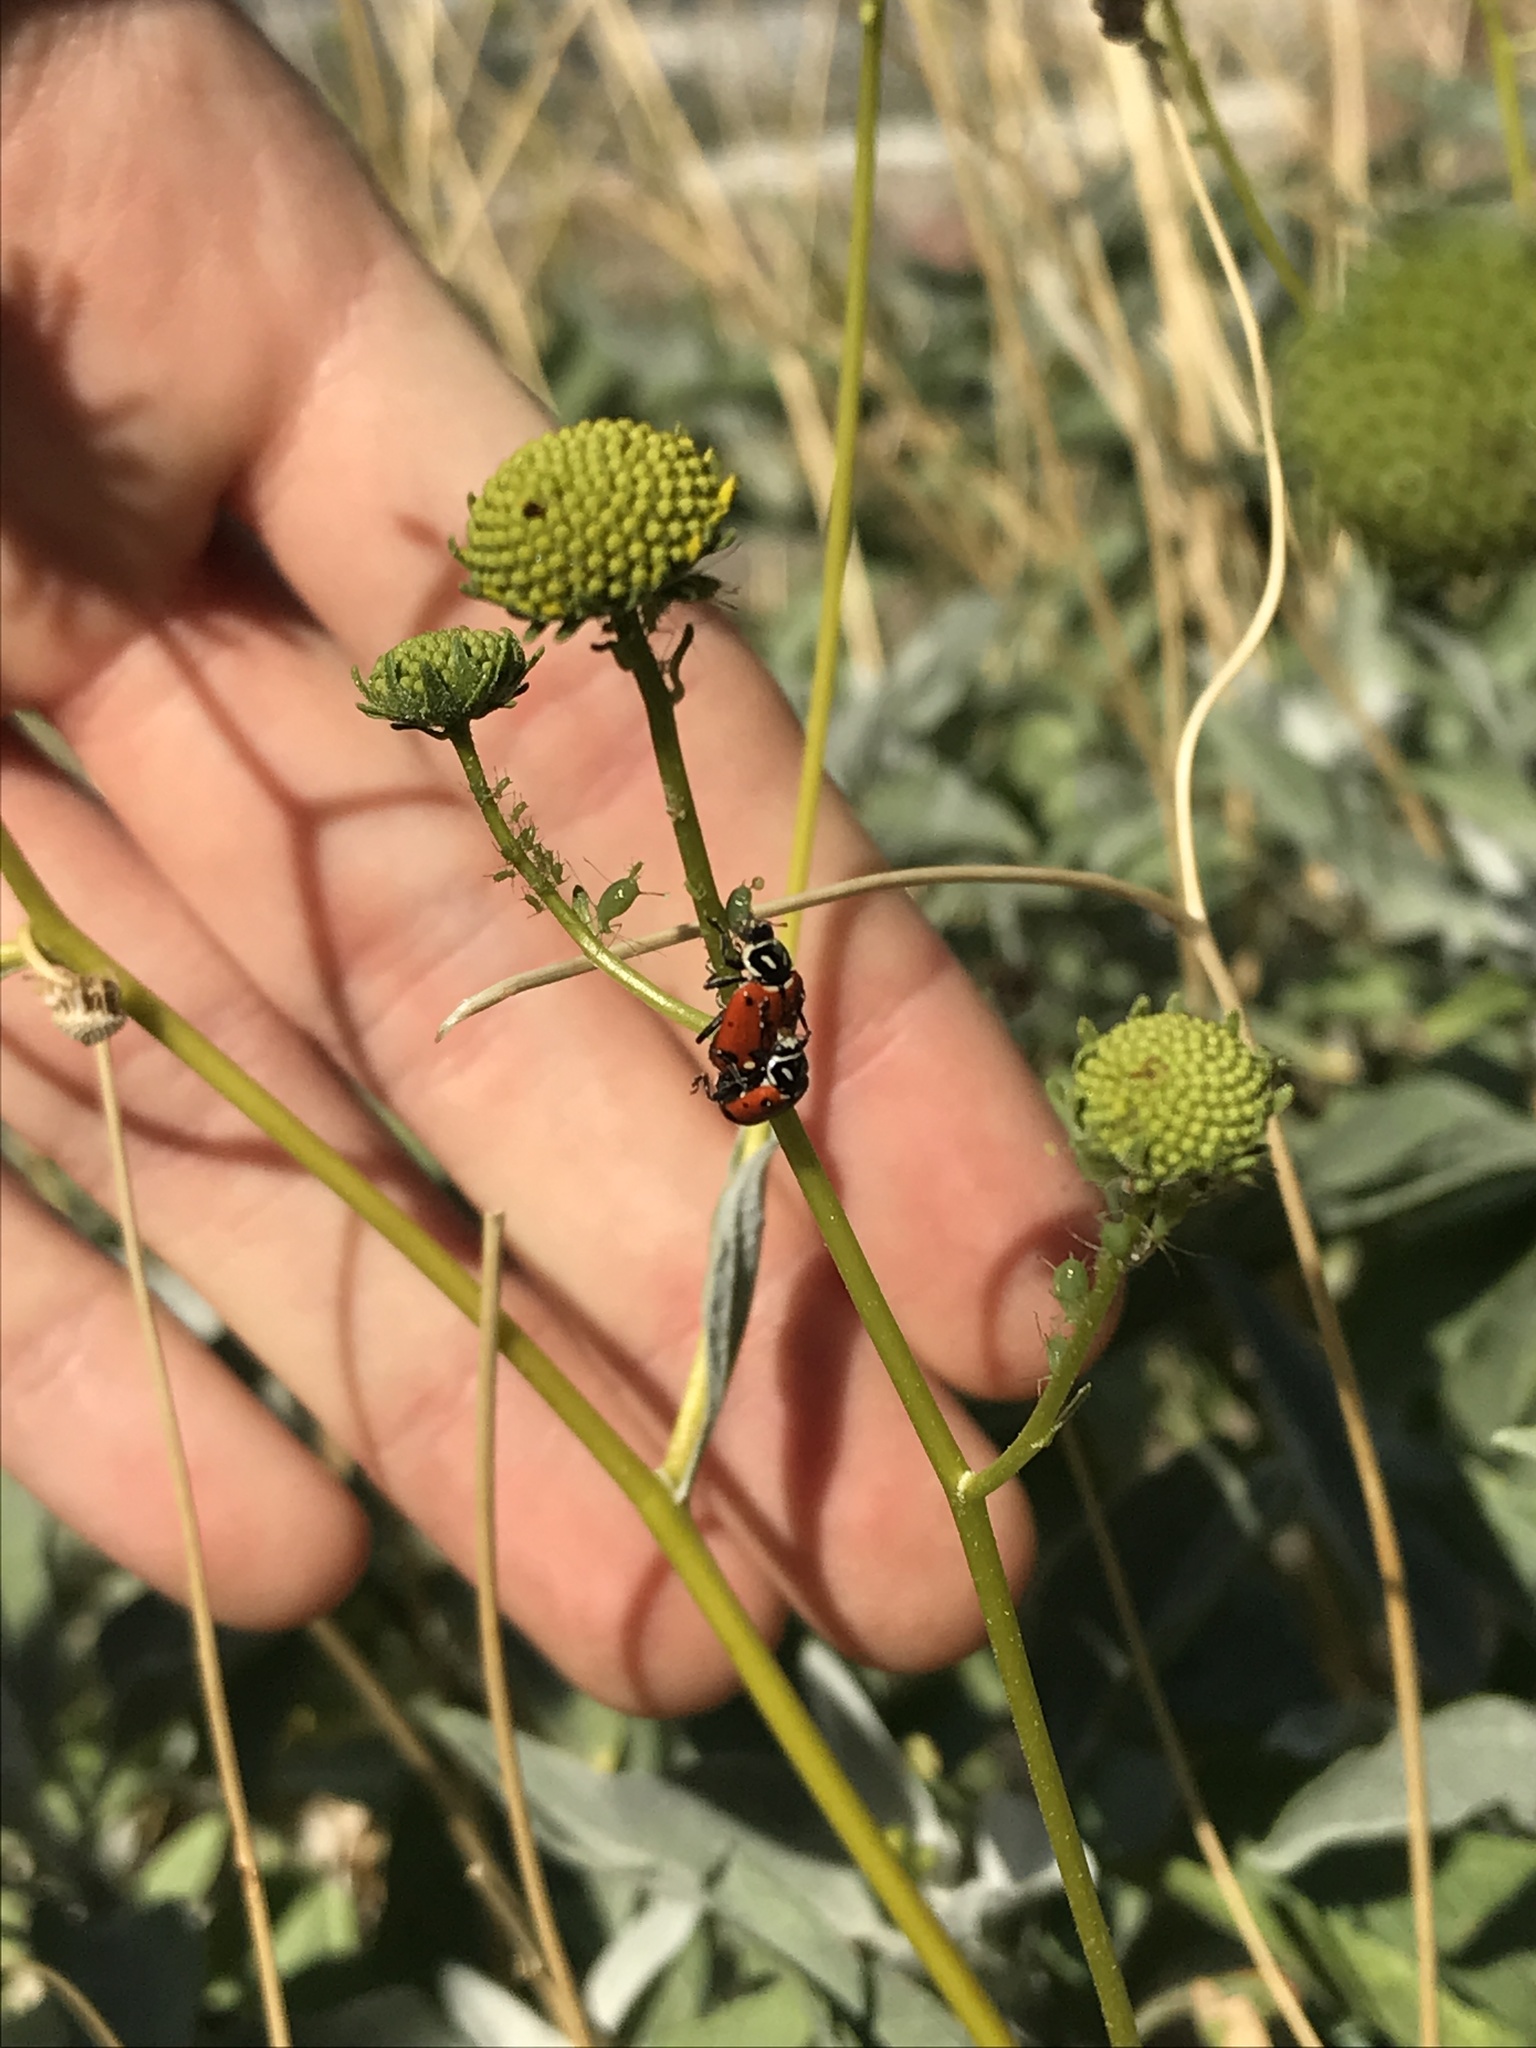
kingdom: Animalia
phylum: Arthropoda
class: Insecta
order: Coleoptera
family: Coccinellidae
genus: Hippodamia
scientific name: Hippodamia convergens
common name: Convergent lady beetle
